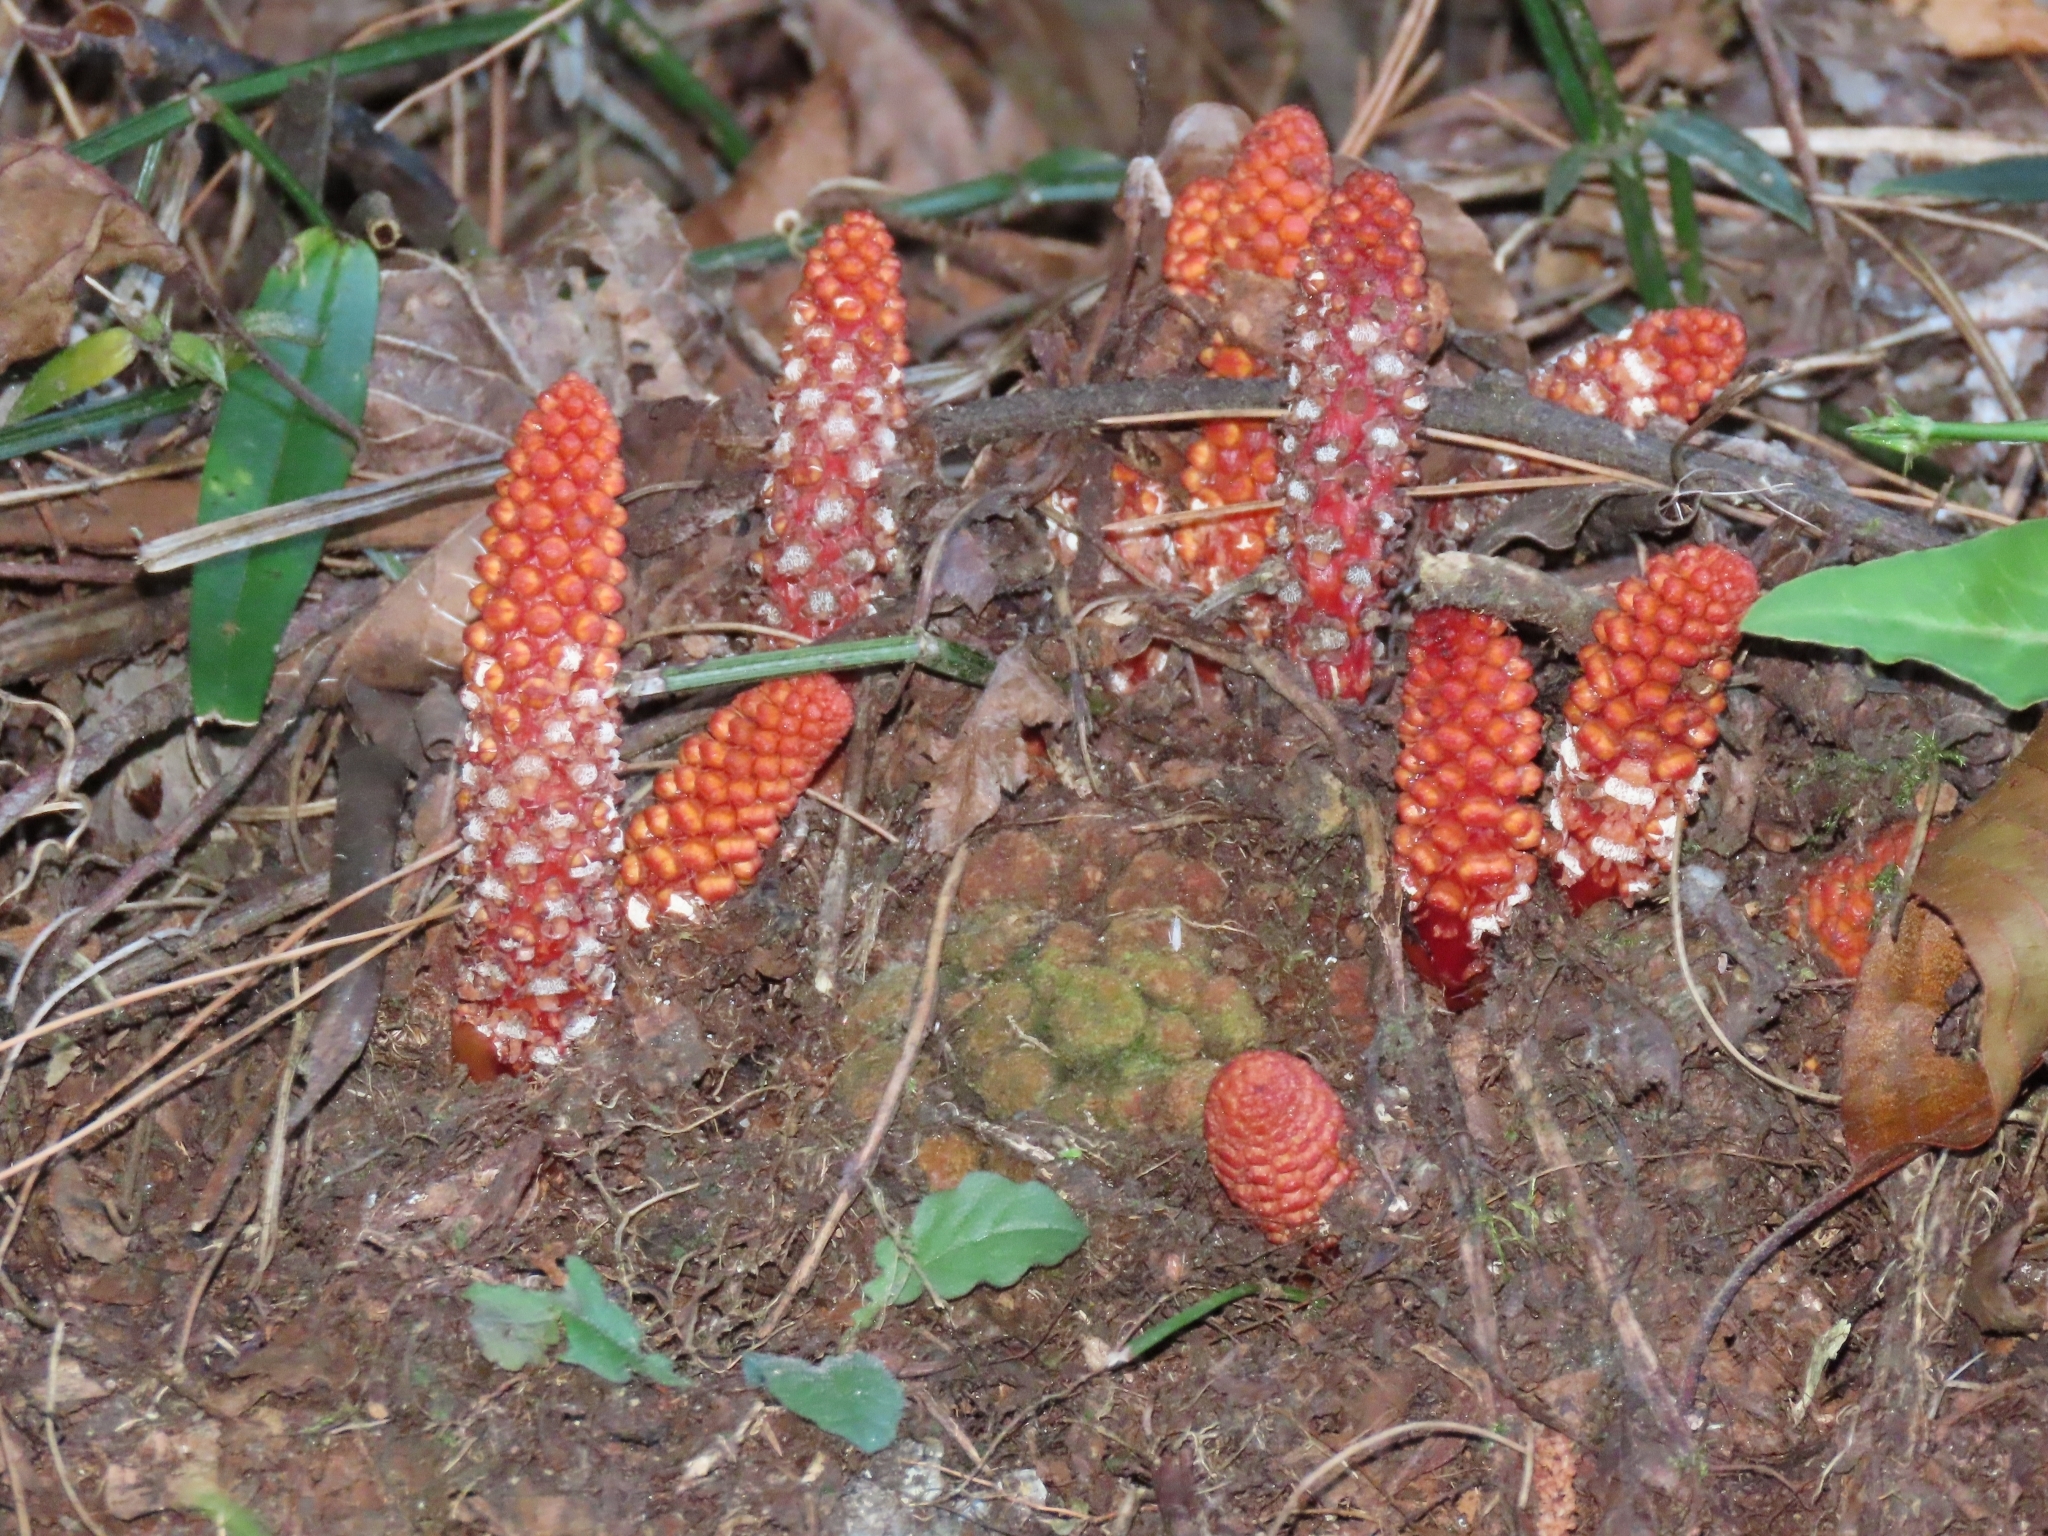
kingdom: Plantae
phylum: Tracheophyta
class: Magnoliopsida
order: Santalales
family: Balanophoraceae
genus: Balanophora
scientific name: Balanophora laxiflora
